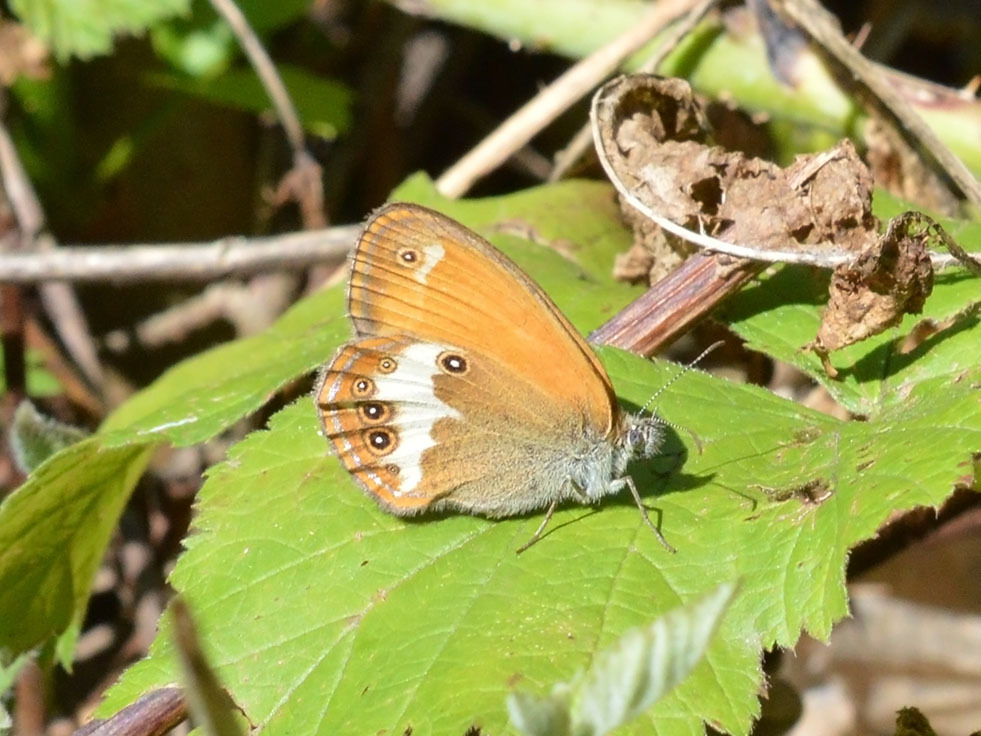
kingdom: Animalia
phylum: Arthropoda
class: Insecta
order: Lepidoptera
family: Nymphalidae
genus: Coenonympha
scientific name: Coenonympha arcania
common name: Pearly heath
